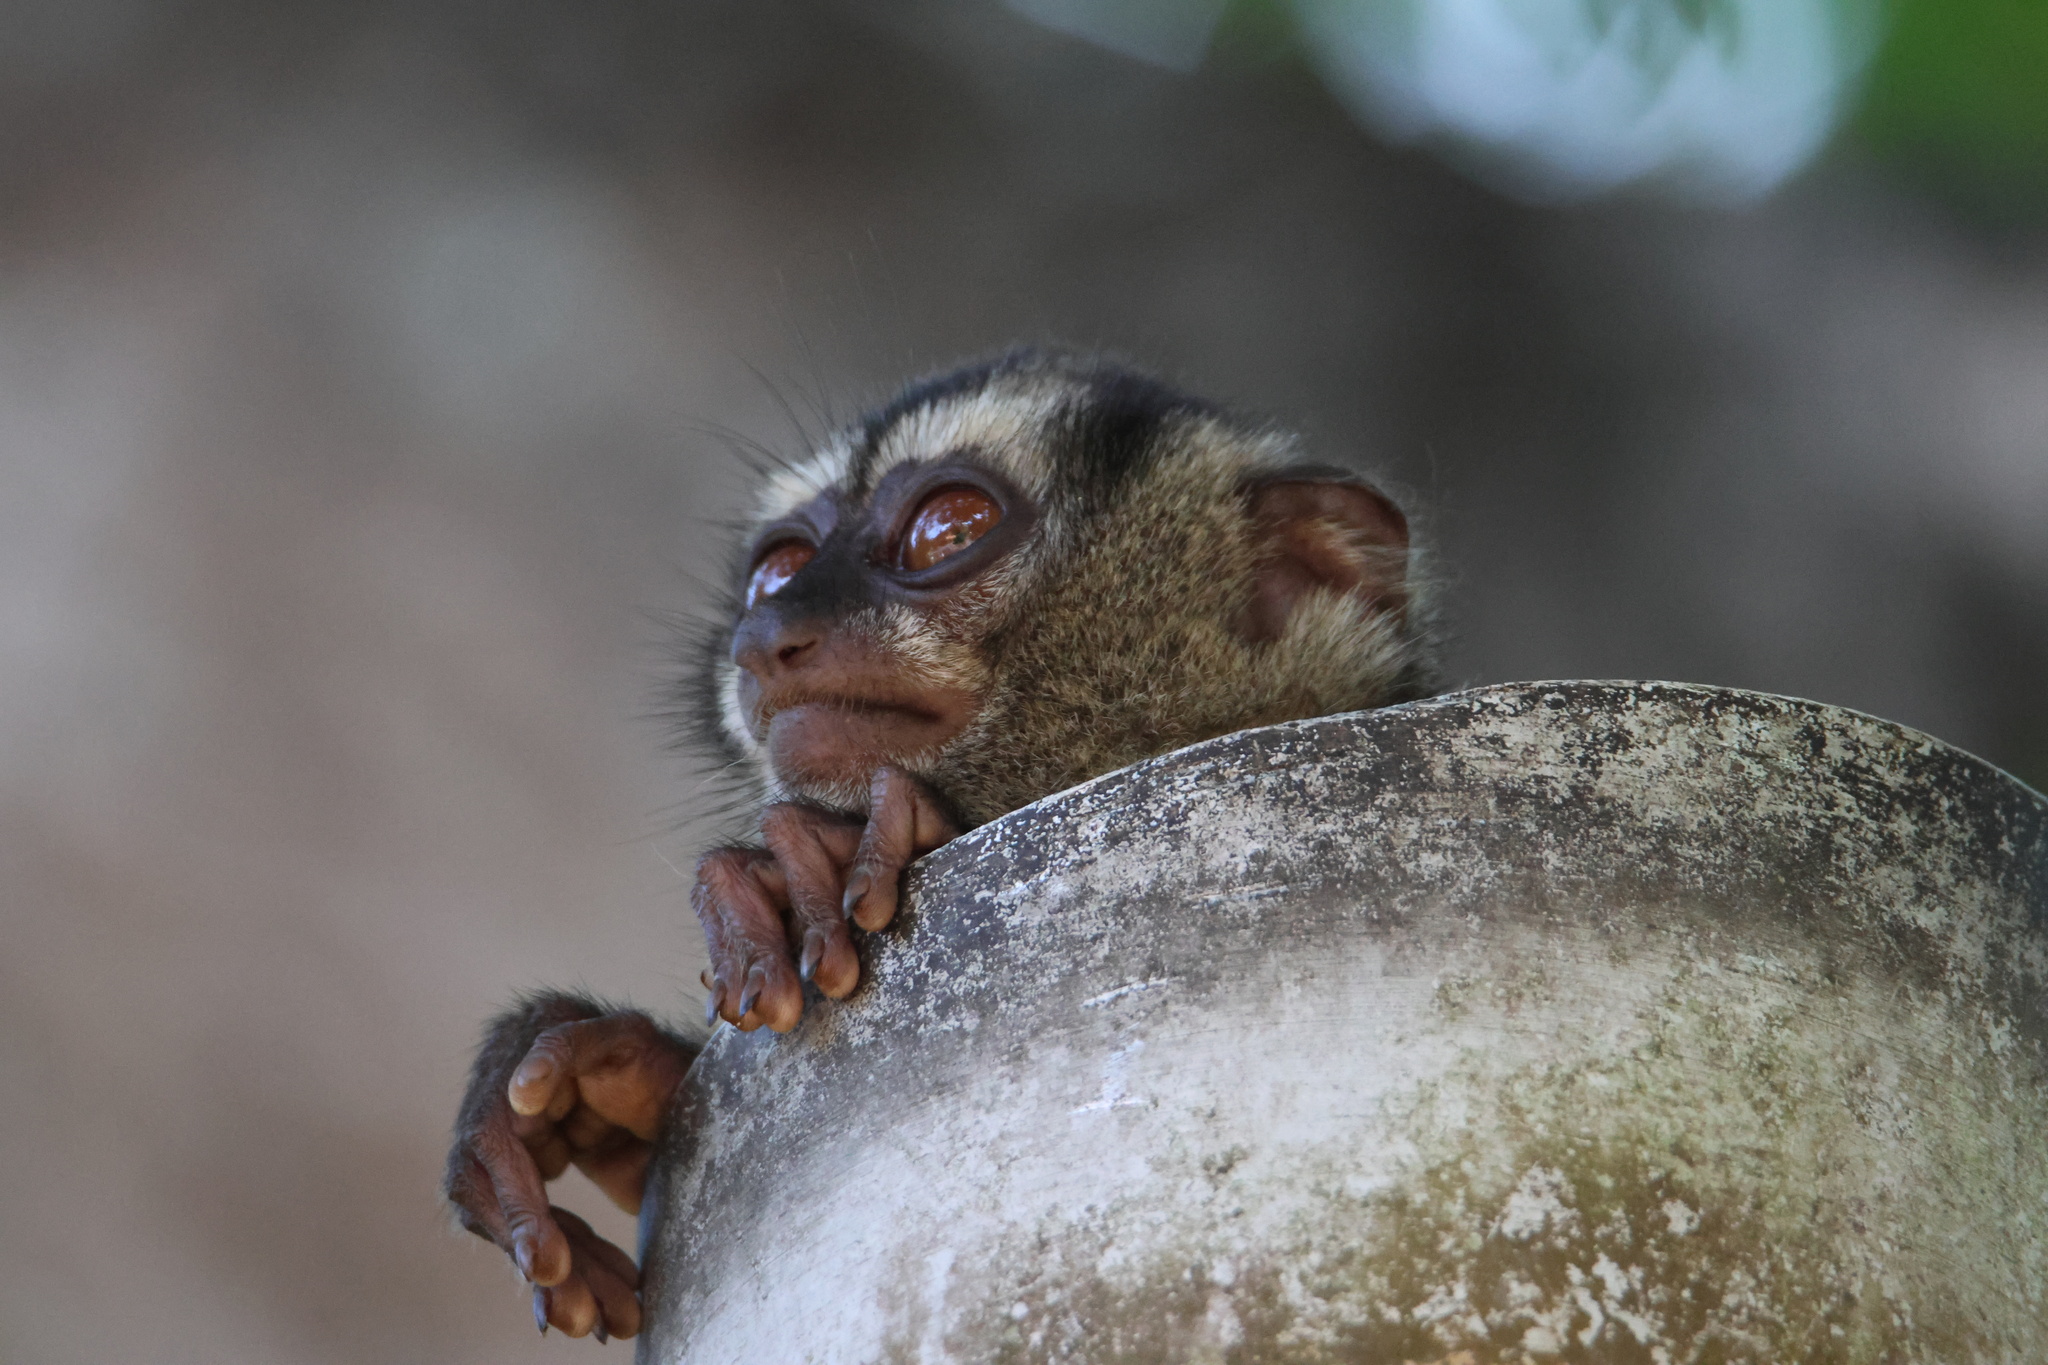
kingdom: Animalia
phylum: Chordata
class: Mammalia
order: Primates
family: Aotidae
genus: Aotus
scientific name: Aotus zonalis
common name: Panamanian night monkey
